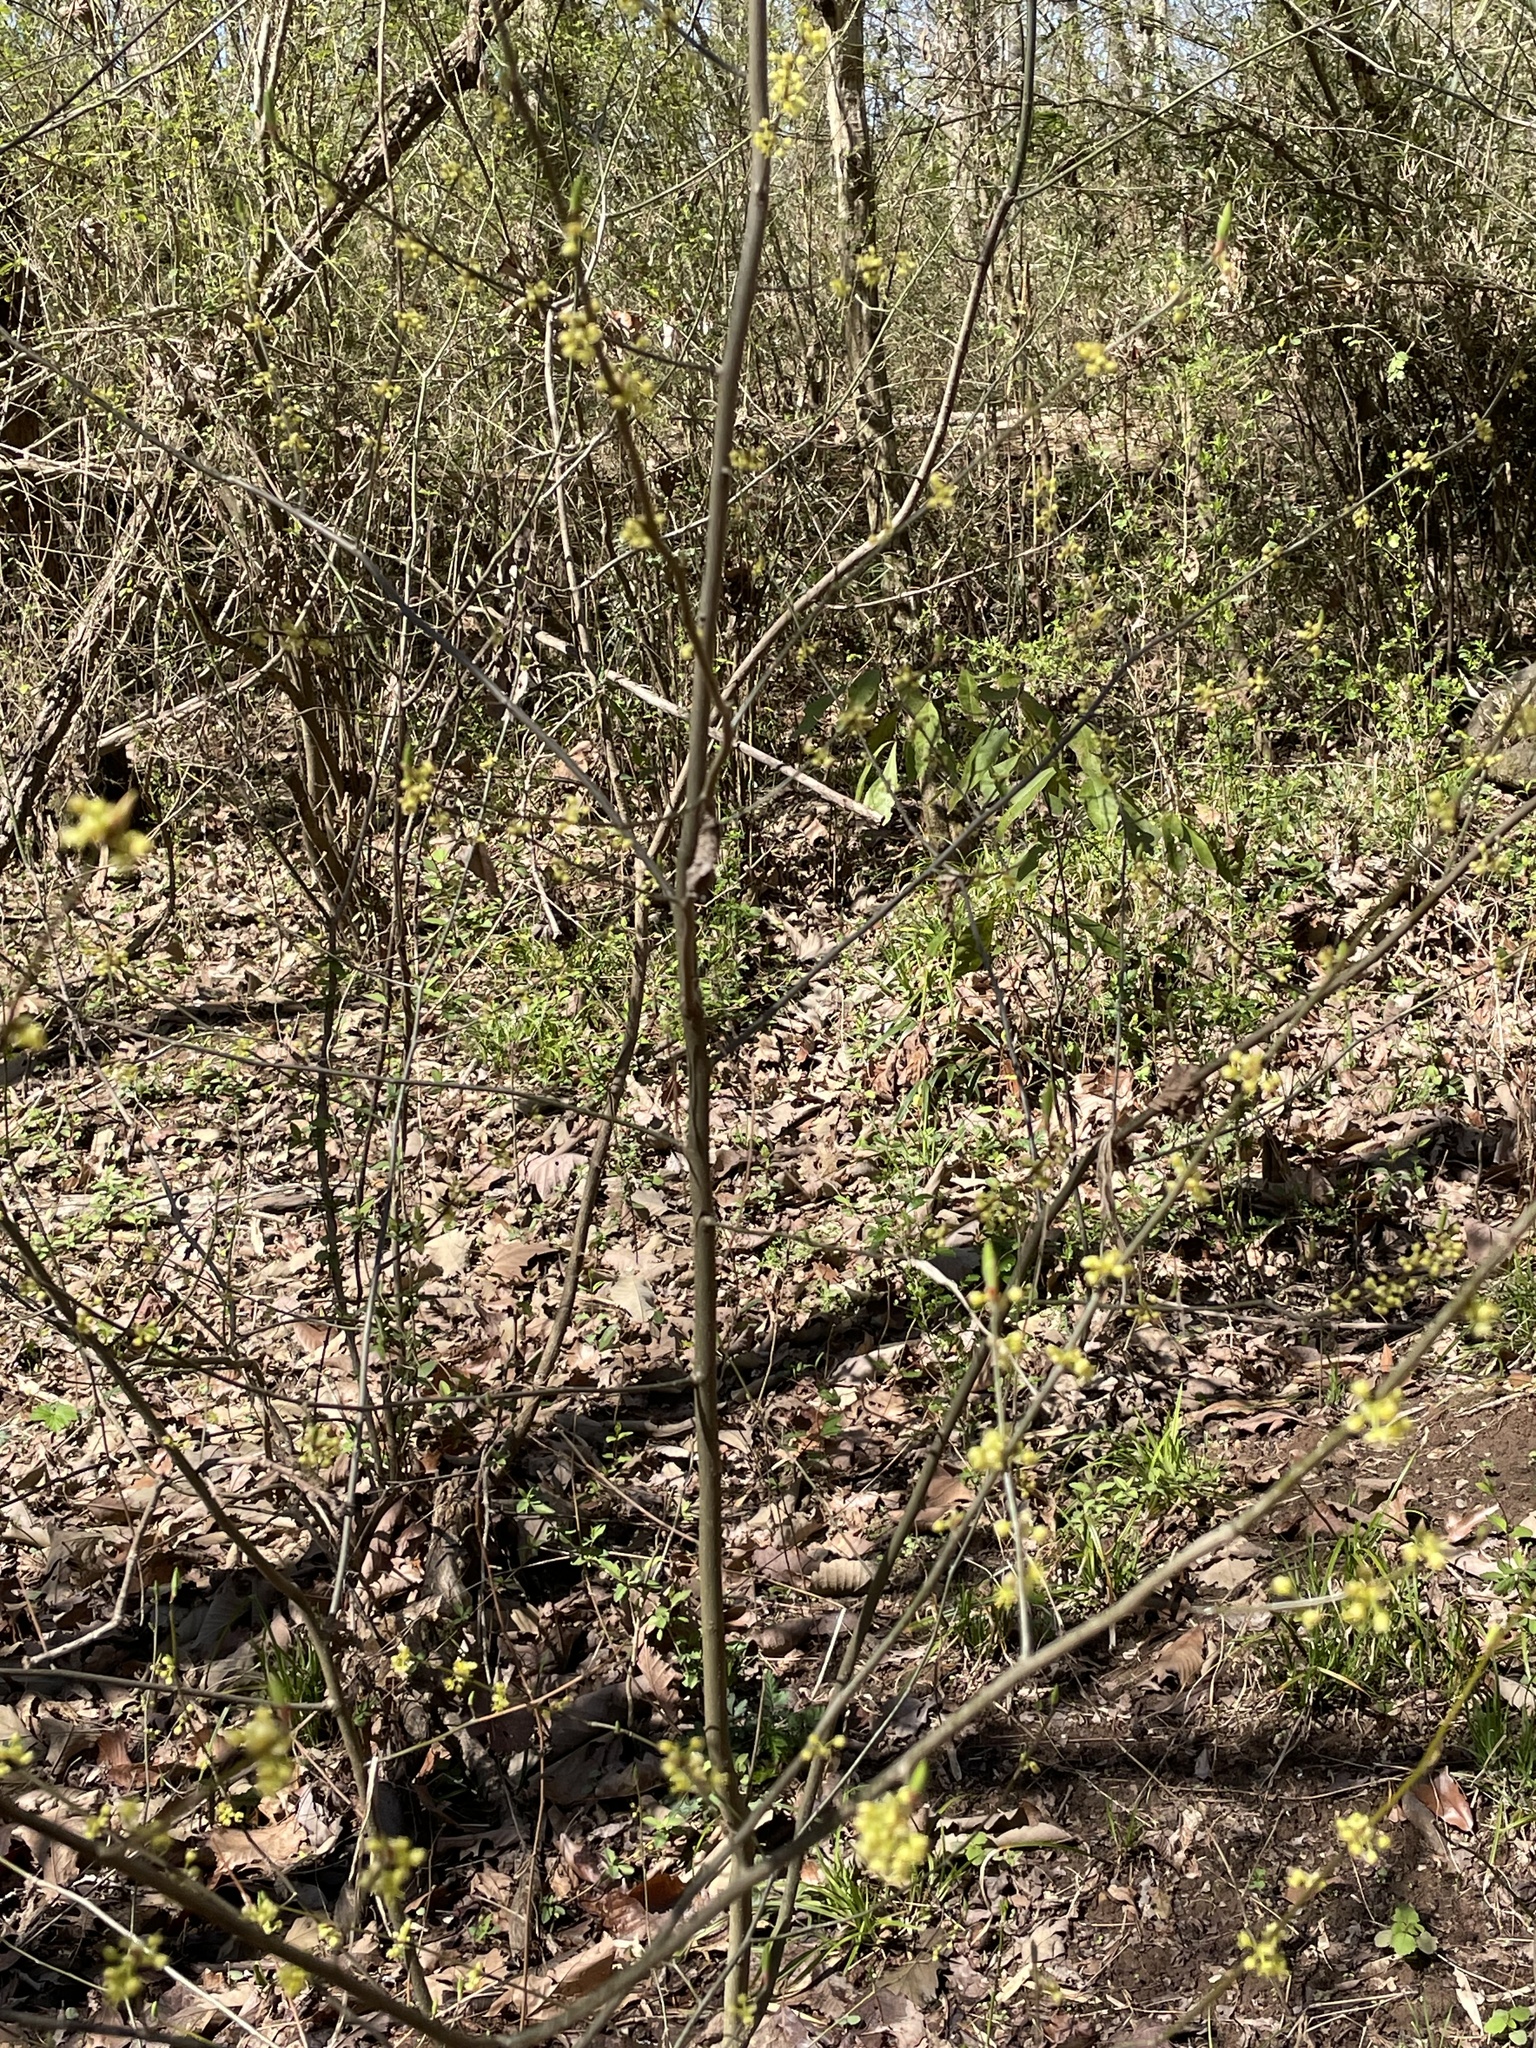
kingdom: Plantae
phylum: Tracheophyta
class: Magnoliopsida
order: Laurales
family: Lauraceae
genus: Lindera
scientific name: Lindera benzoin
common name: Spicebush
